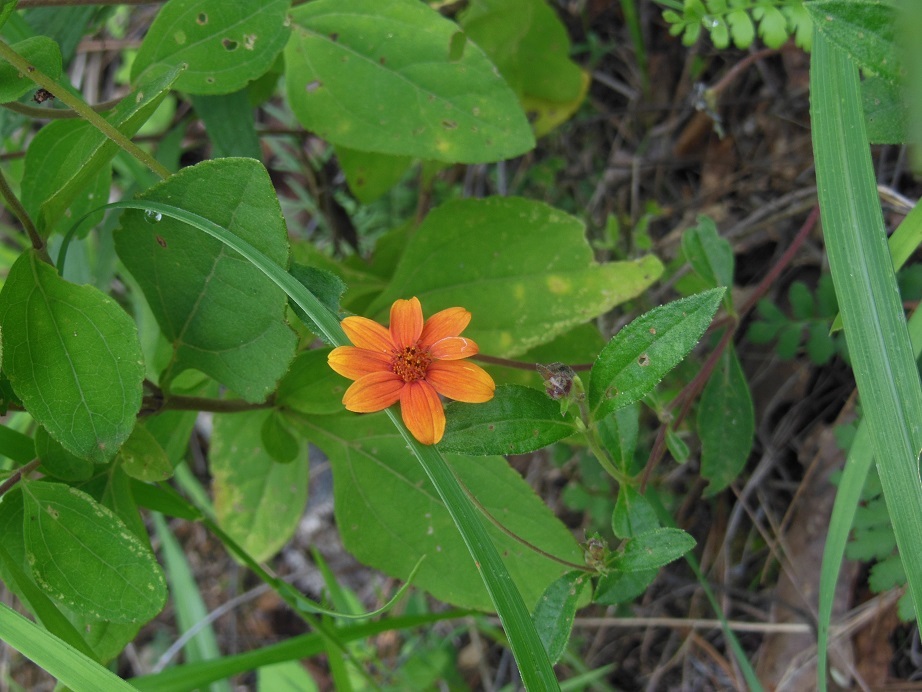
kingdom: Plantae
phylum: Tracheophyta
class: Magnoliopsida
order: Asterales
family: Asteraceae
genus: Wedelia
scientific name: Wedelia purpurea
